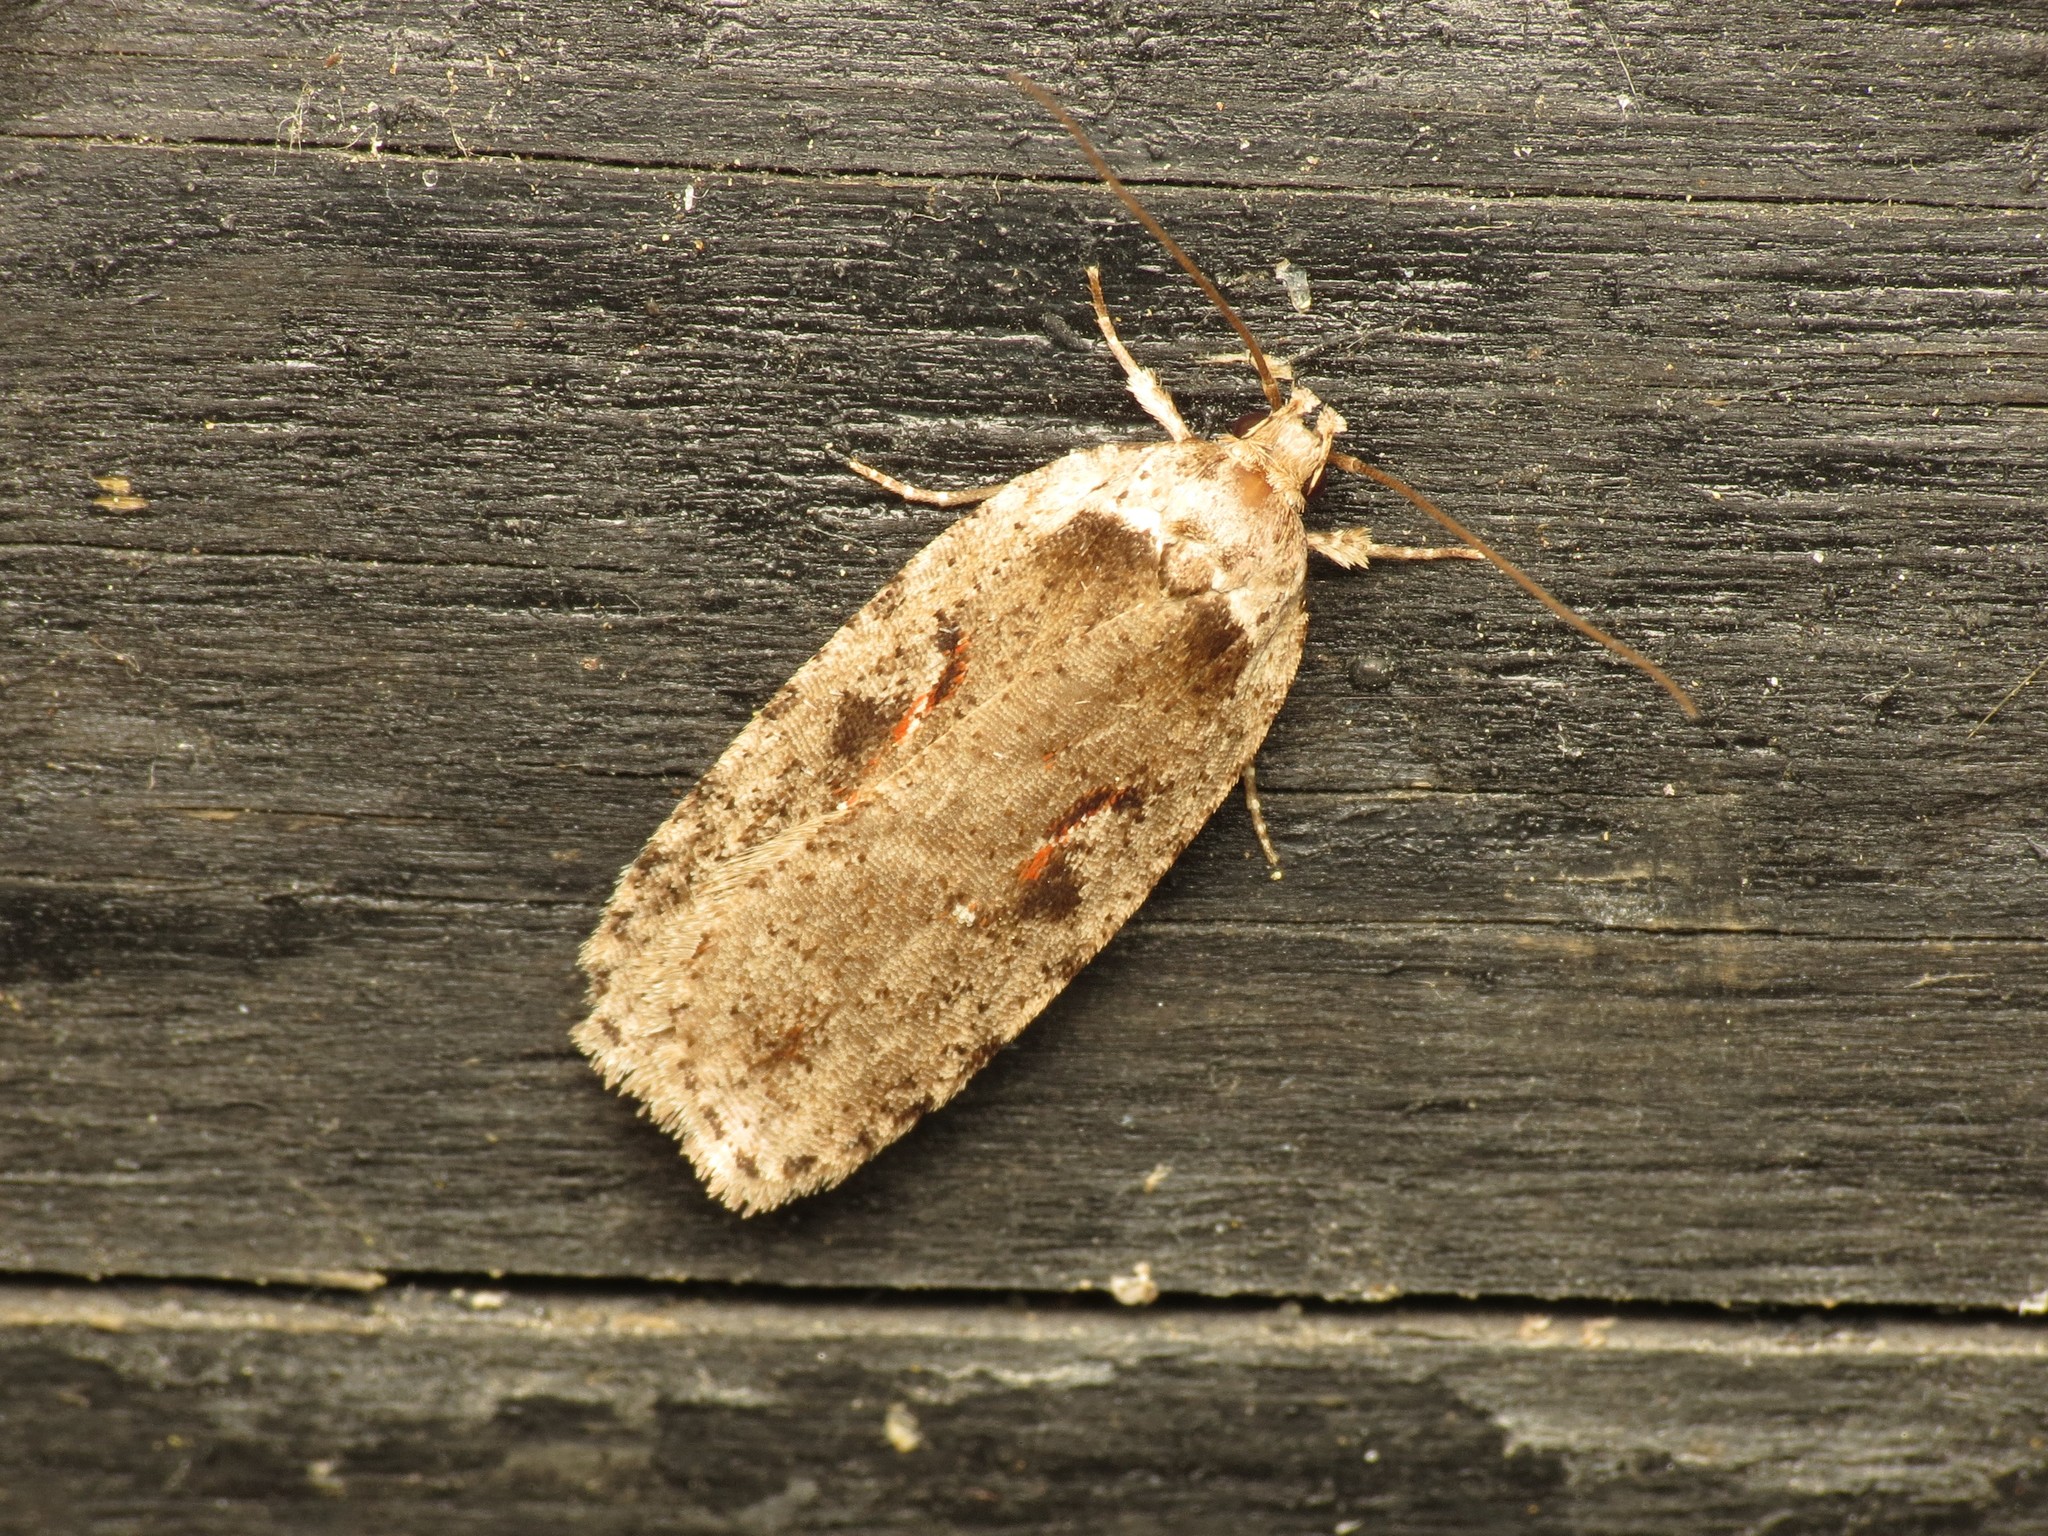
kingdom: Animalia
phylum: Arthropoda
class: Insecta
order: Lepidoptera
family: Depressariidae
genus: Agonopterix
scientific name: Agonopterix ocellana
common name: Red-letter flat-body
